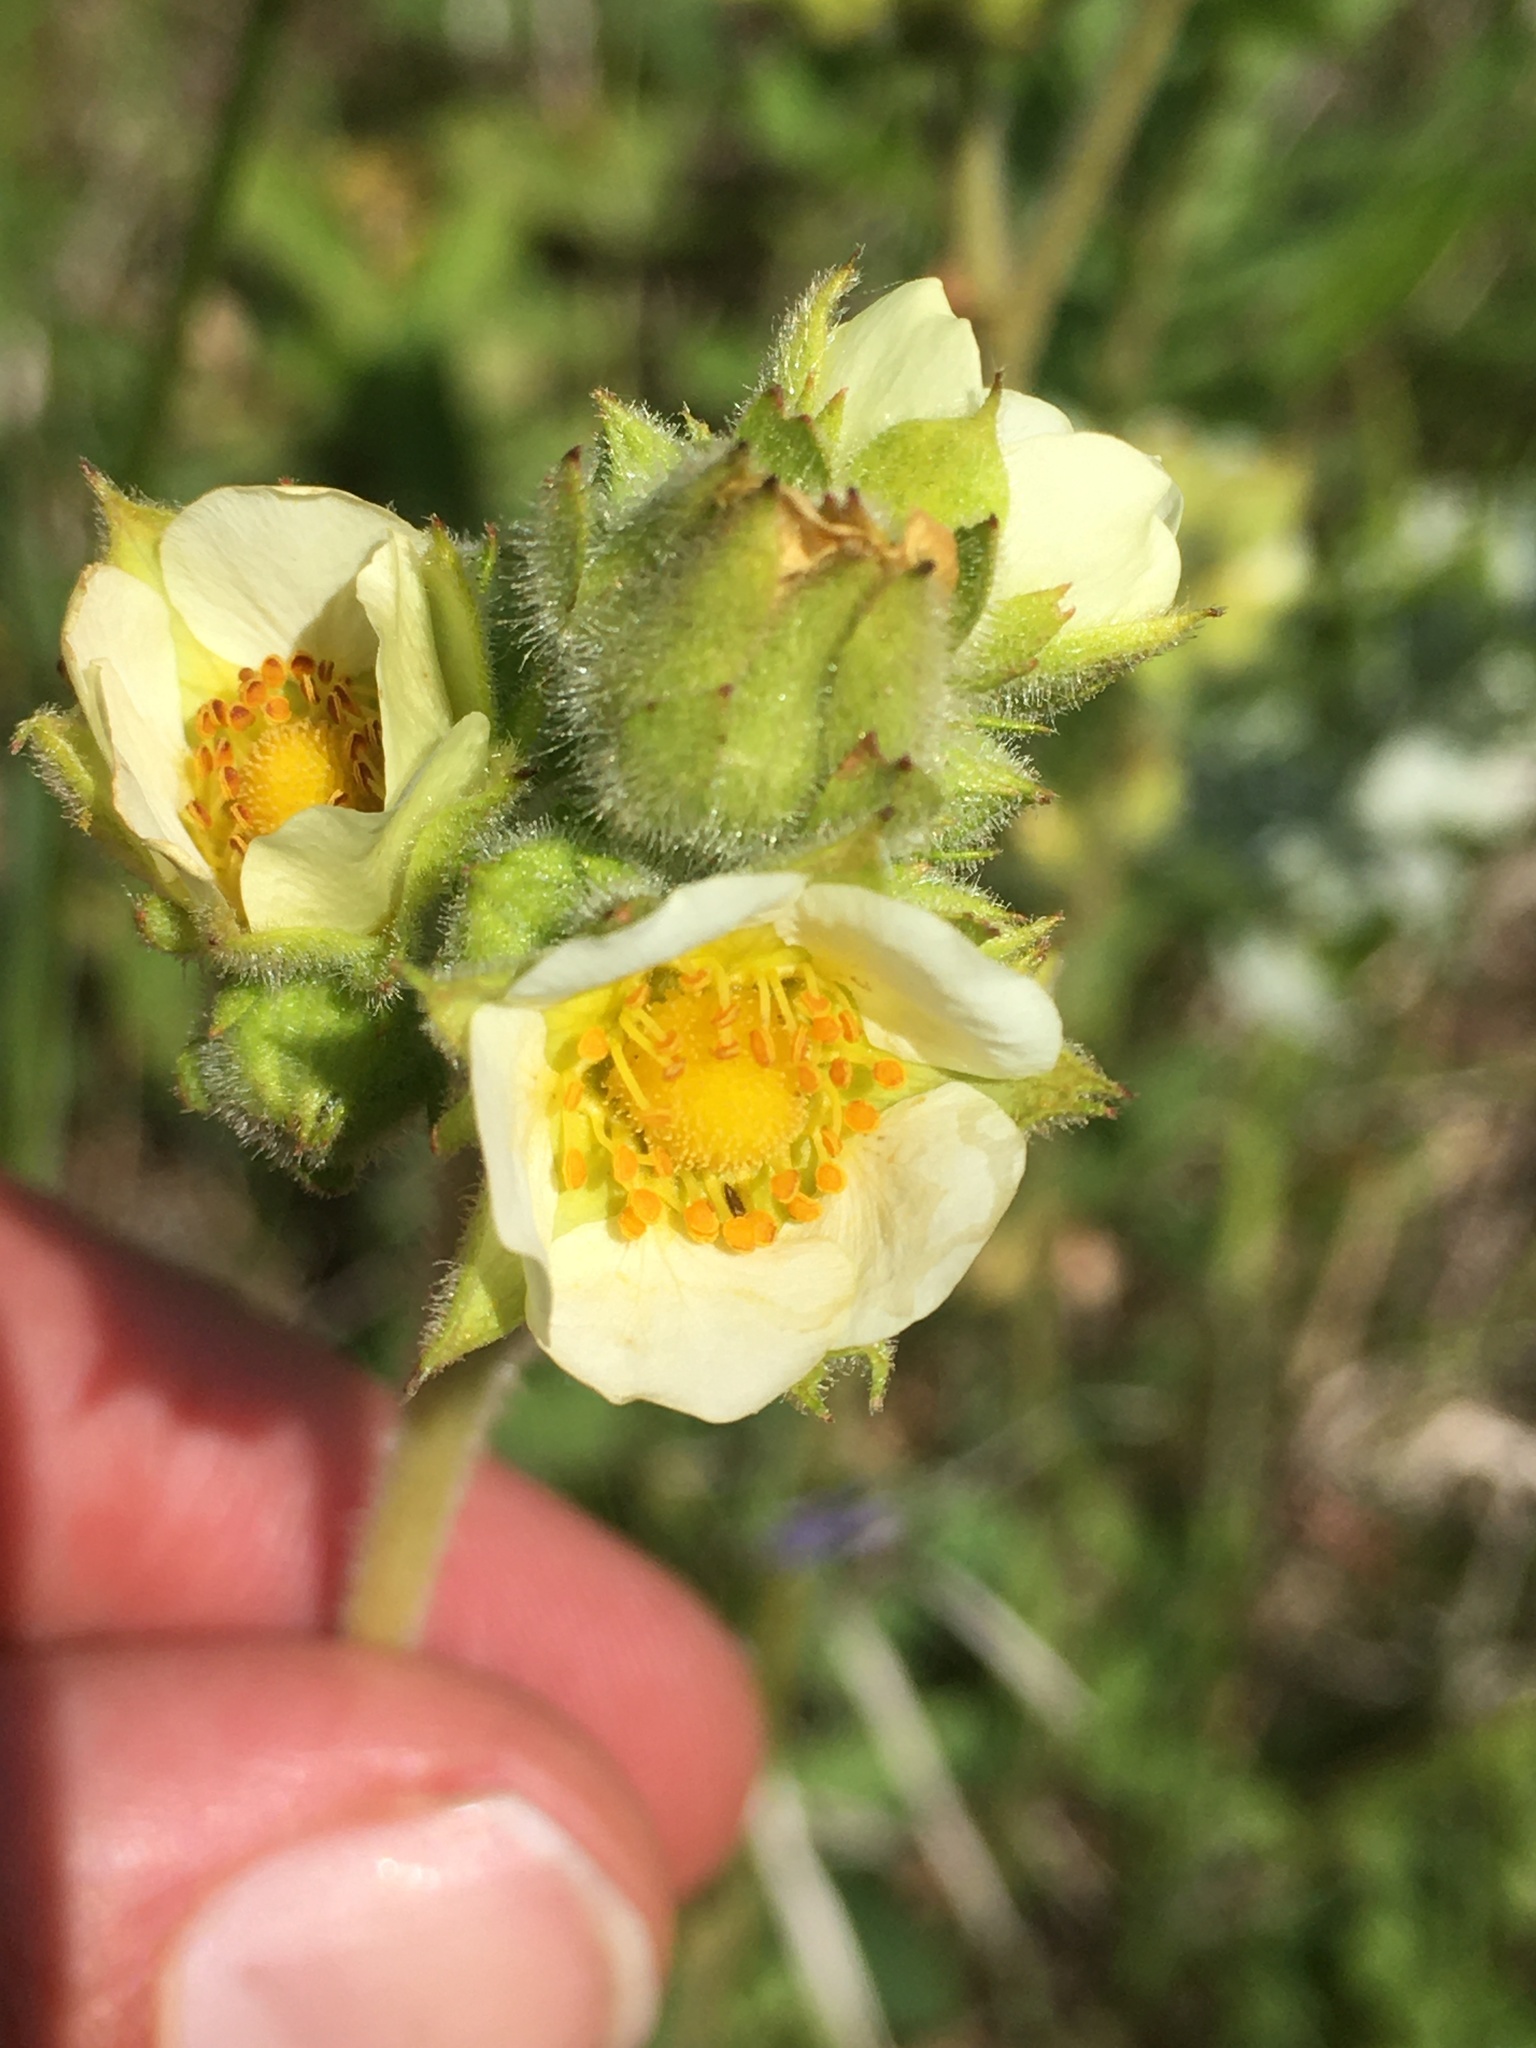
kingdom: Plantae
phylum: Tracheophyta
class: Magnoliopsida
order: Rosales
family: Rosaceae
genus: Drymocallis
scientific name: Drymocallis arguta
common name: Tall cinquefoil
